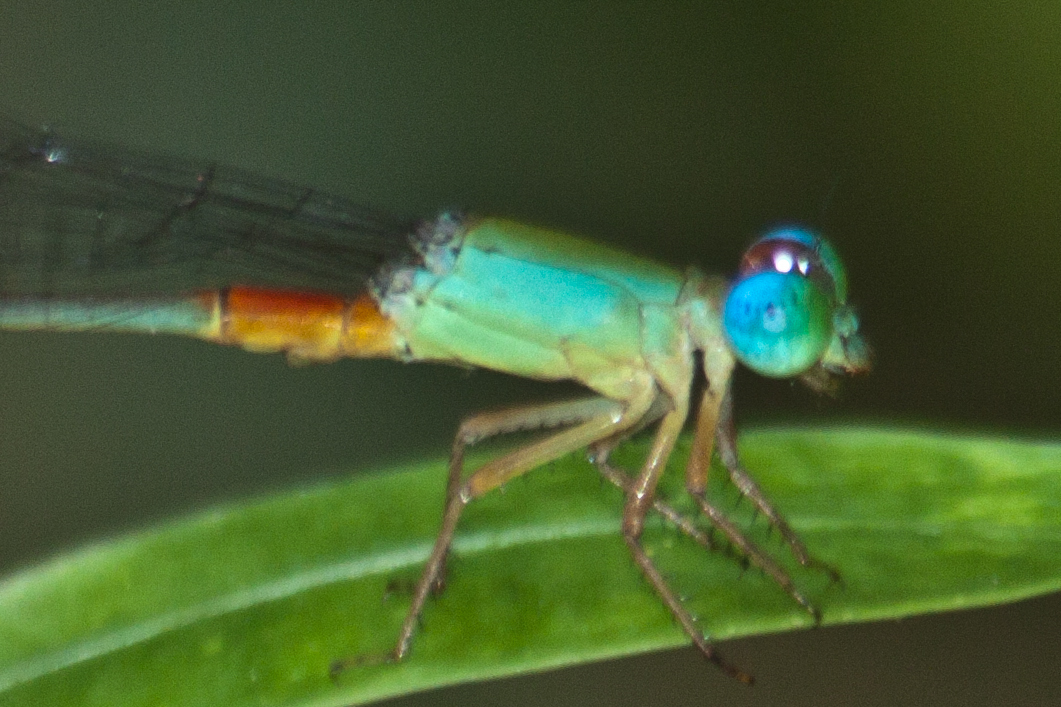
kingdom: Animalia
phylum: Arthropoda
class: Insecta
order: Odonata
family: Coenagrionidae
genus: Ceriagrion
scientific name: Ceriagrion cerinorubellum
